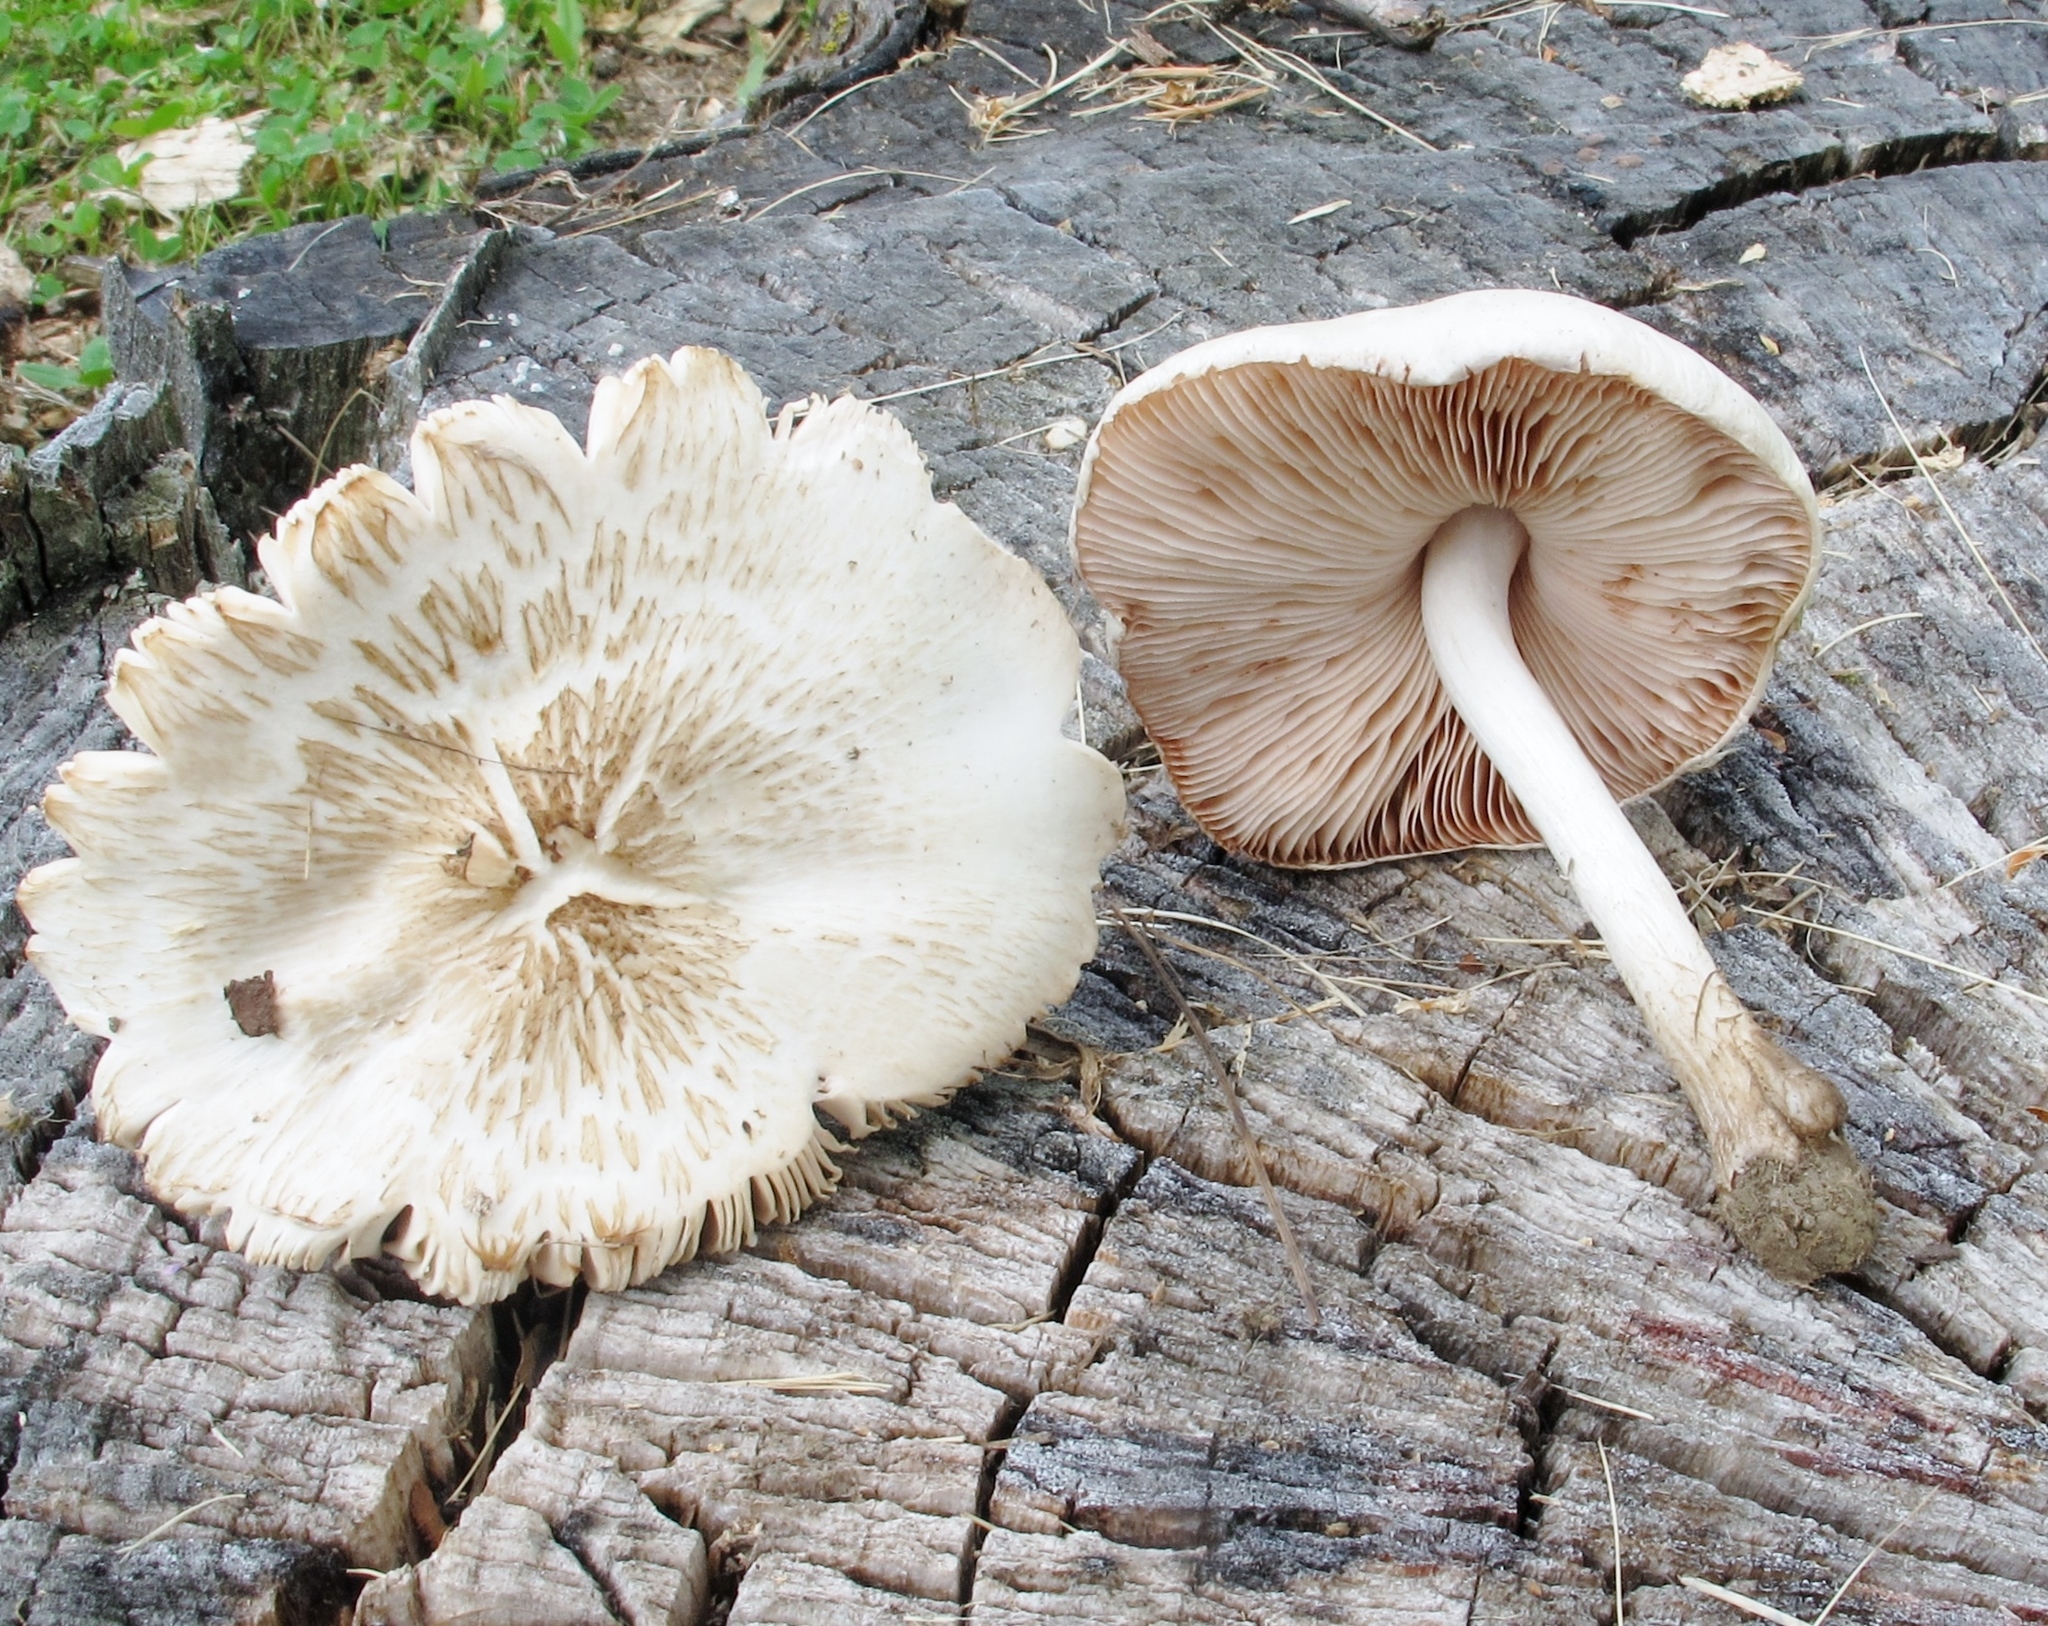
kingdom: Fungi
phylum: Basidiomycota
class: Agaricomycetes
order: Agaricales
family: Pluteaceae
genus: Pluteus
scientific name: Pluteus petasatus
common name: Scaly shield
